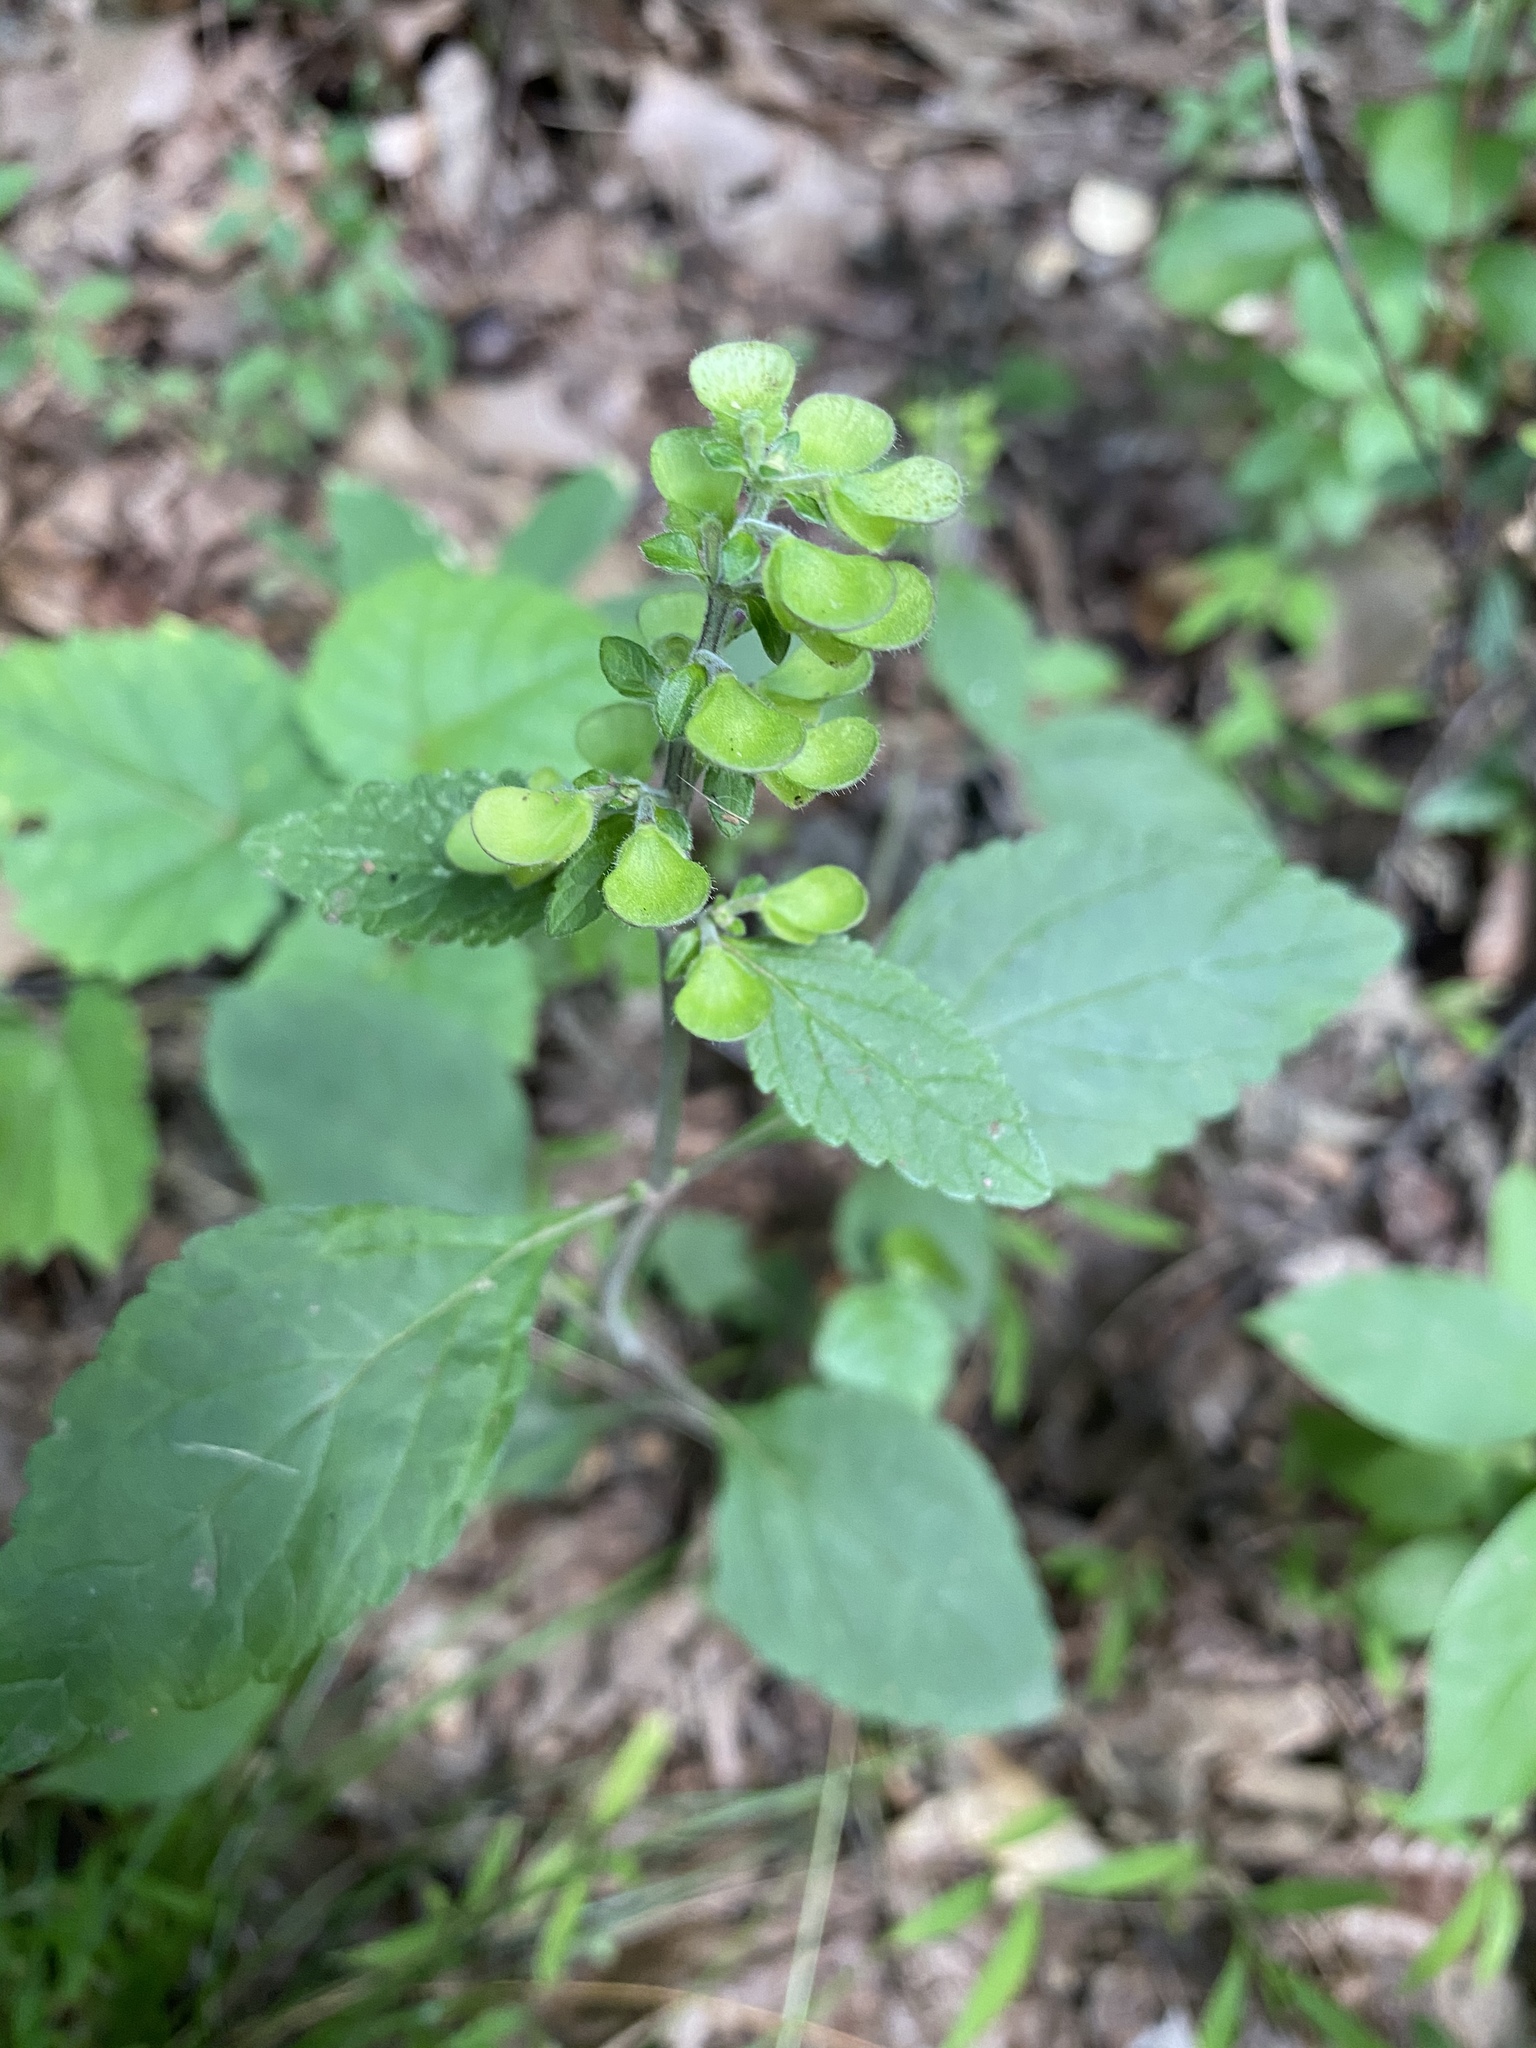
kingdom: Plantae
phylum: Tracheophyta
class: Magnoliopsida
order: Lamiales
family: Lamiaceae
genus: Scutellaria
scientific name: Scutellaria elliptica
